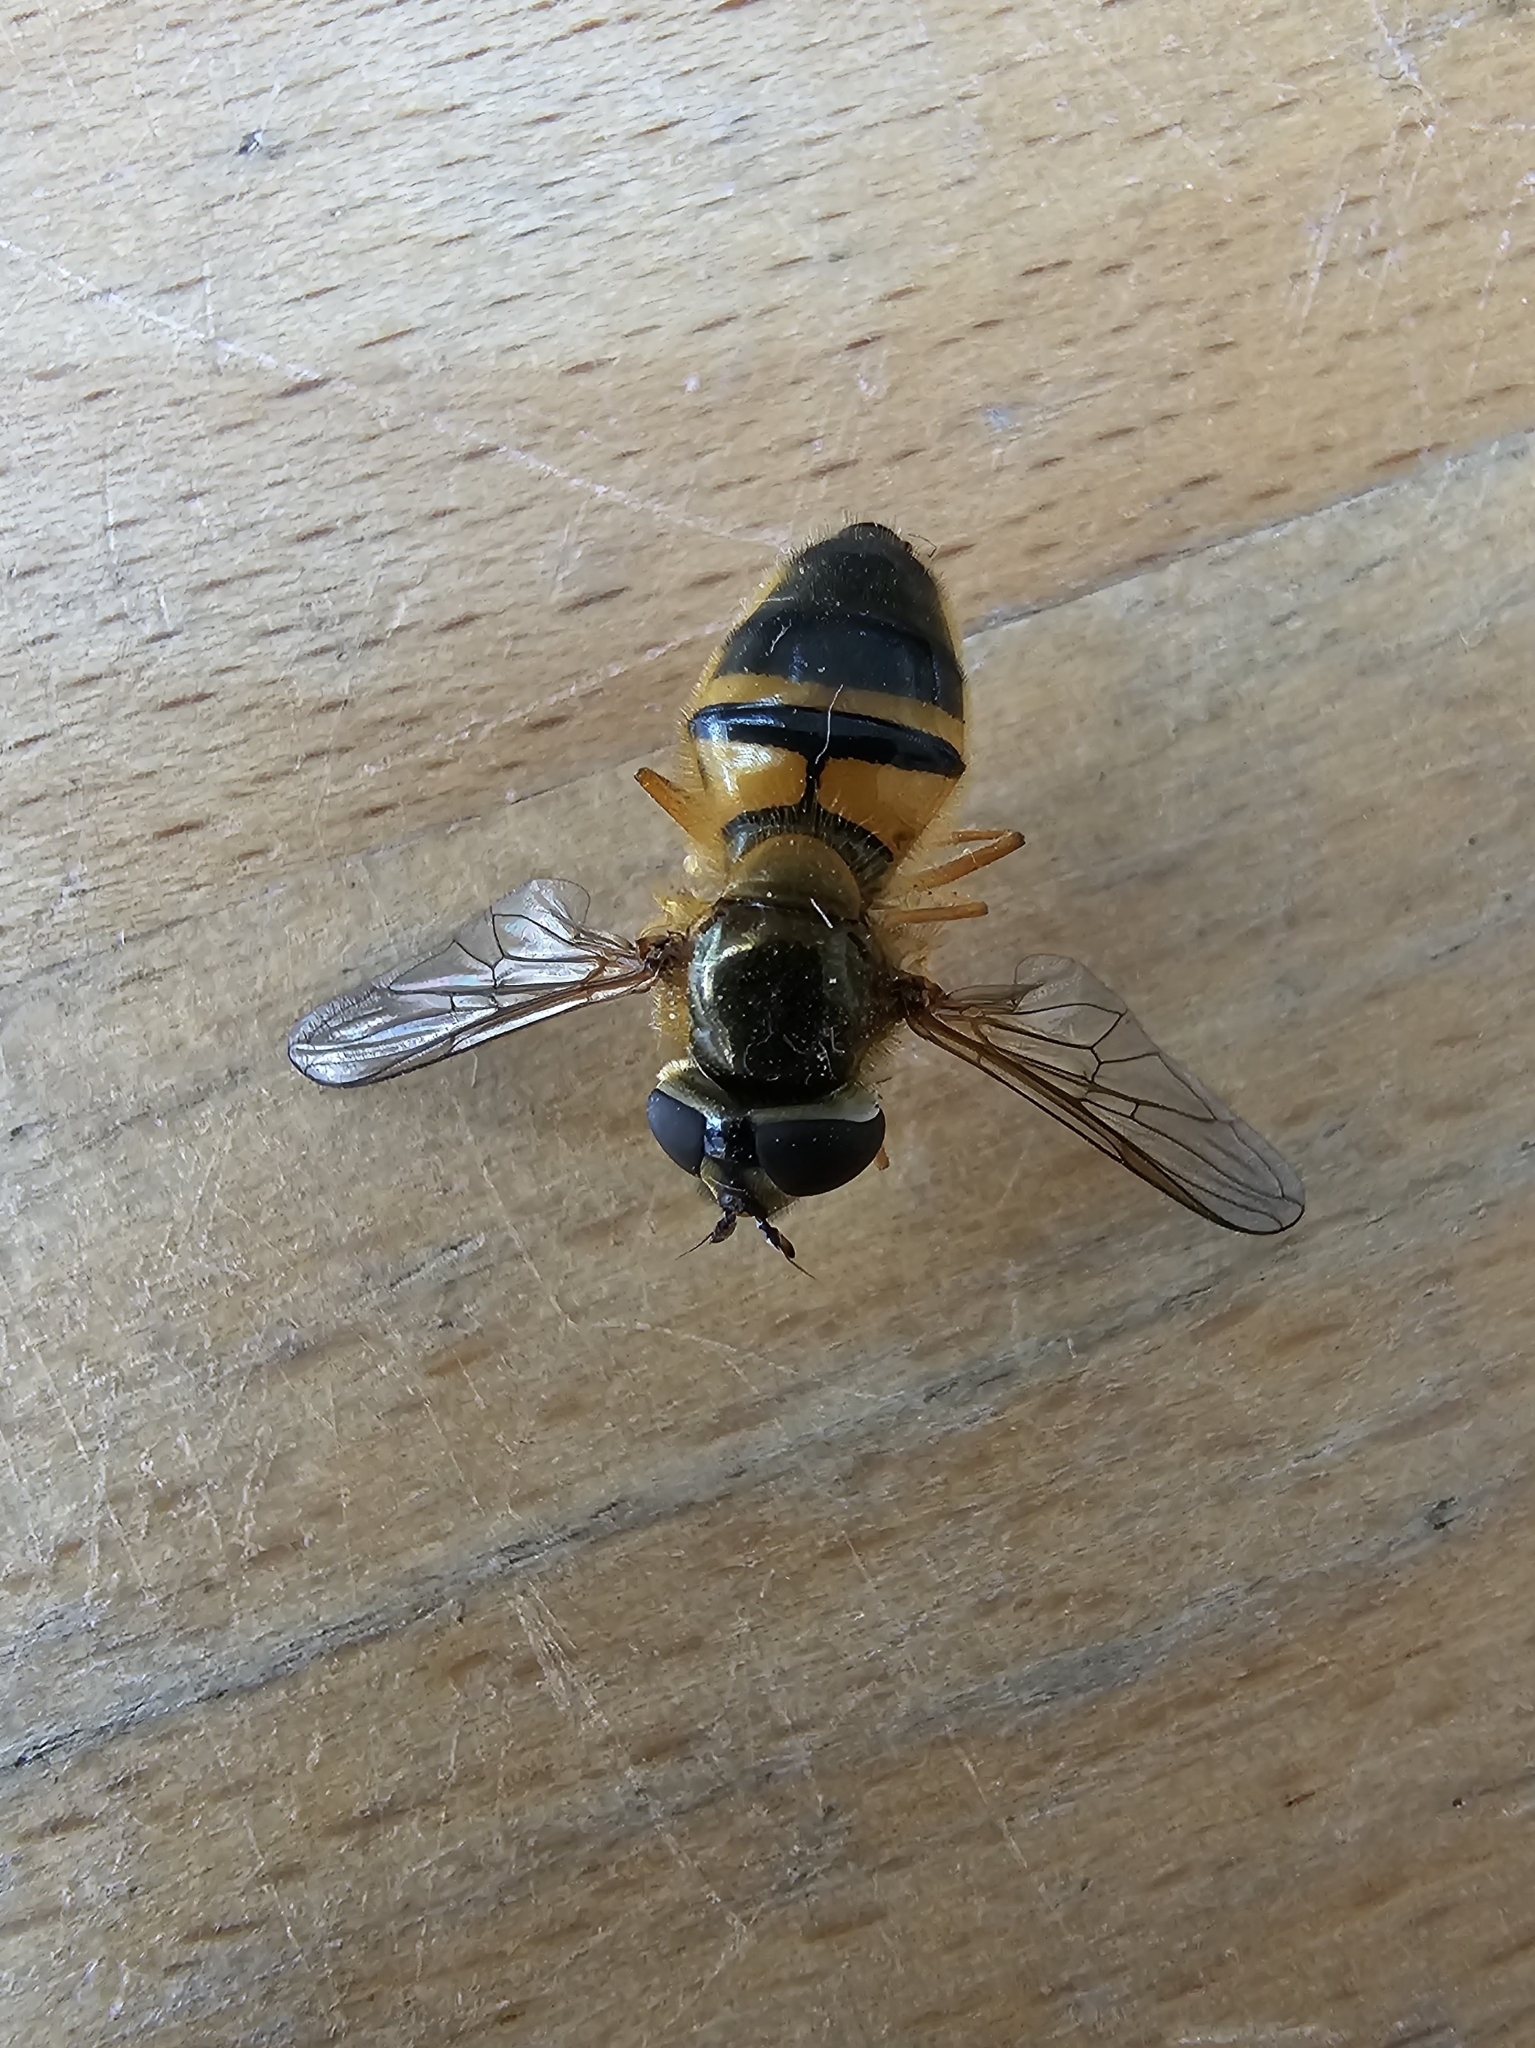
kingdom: Animalia
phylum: Arthropoda
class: Insecta
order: Diptera
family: Syrphidae
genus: Epistrophe
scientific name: Epistrophe eligans
